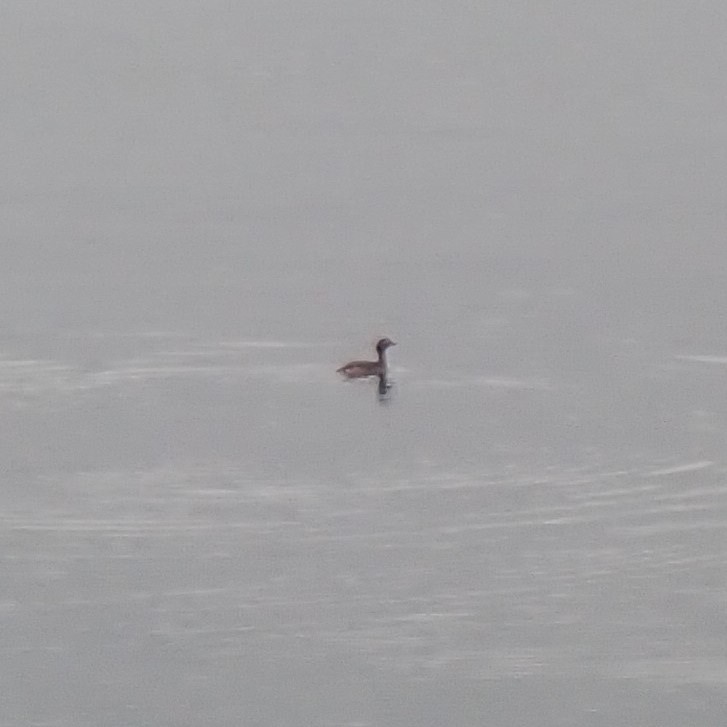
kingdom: Animalia
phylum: Chordata
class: Aves
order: Podicipediformes
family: Podicipedidae
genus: Podiceps
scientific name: Podiceps auritus
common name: Horned grebe
